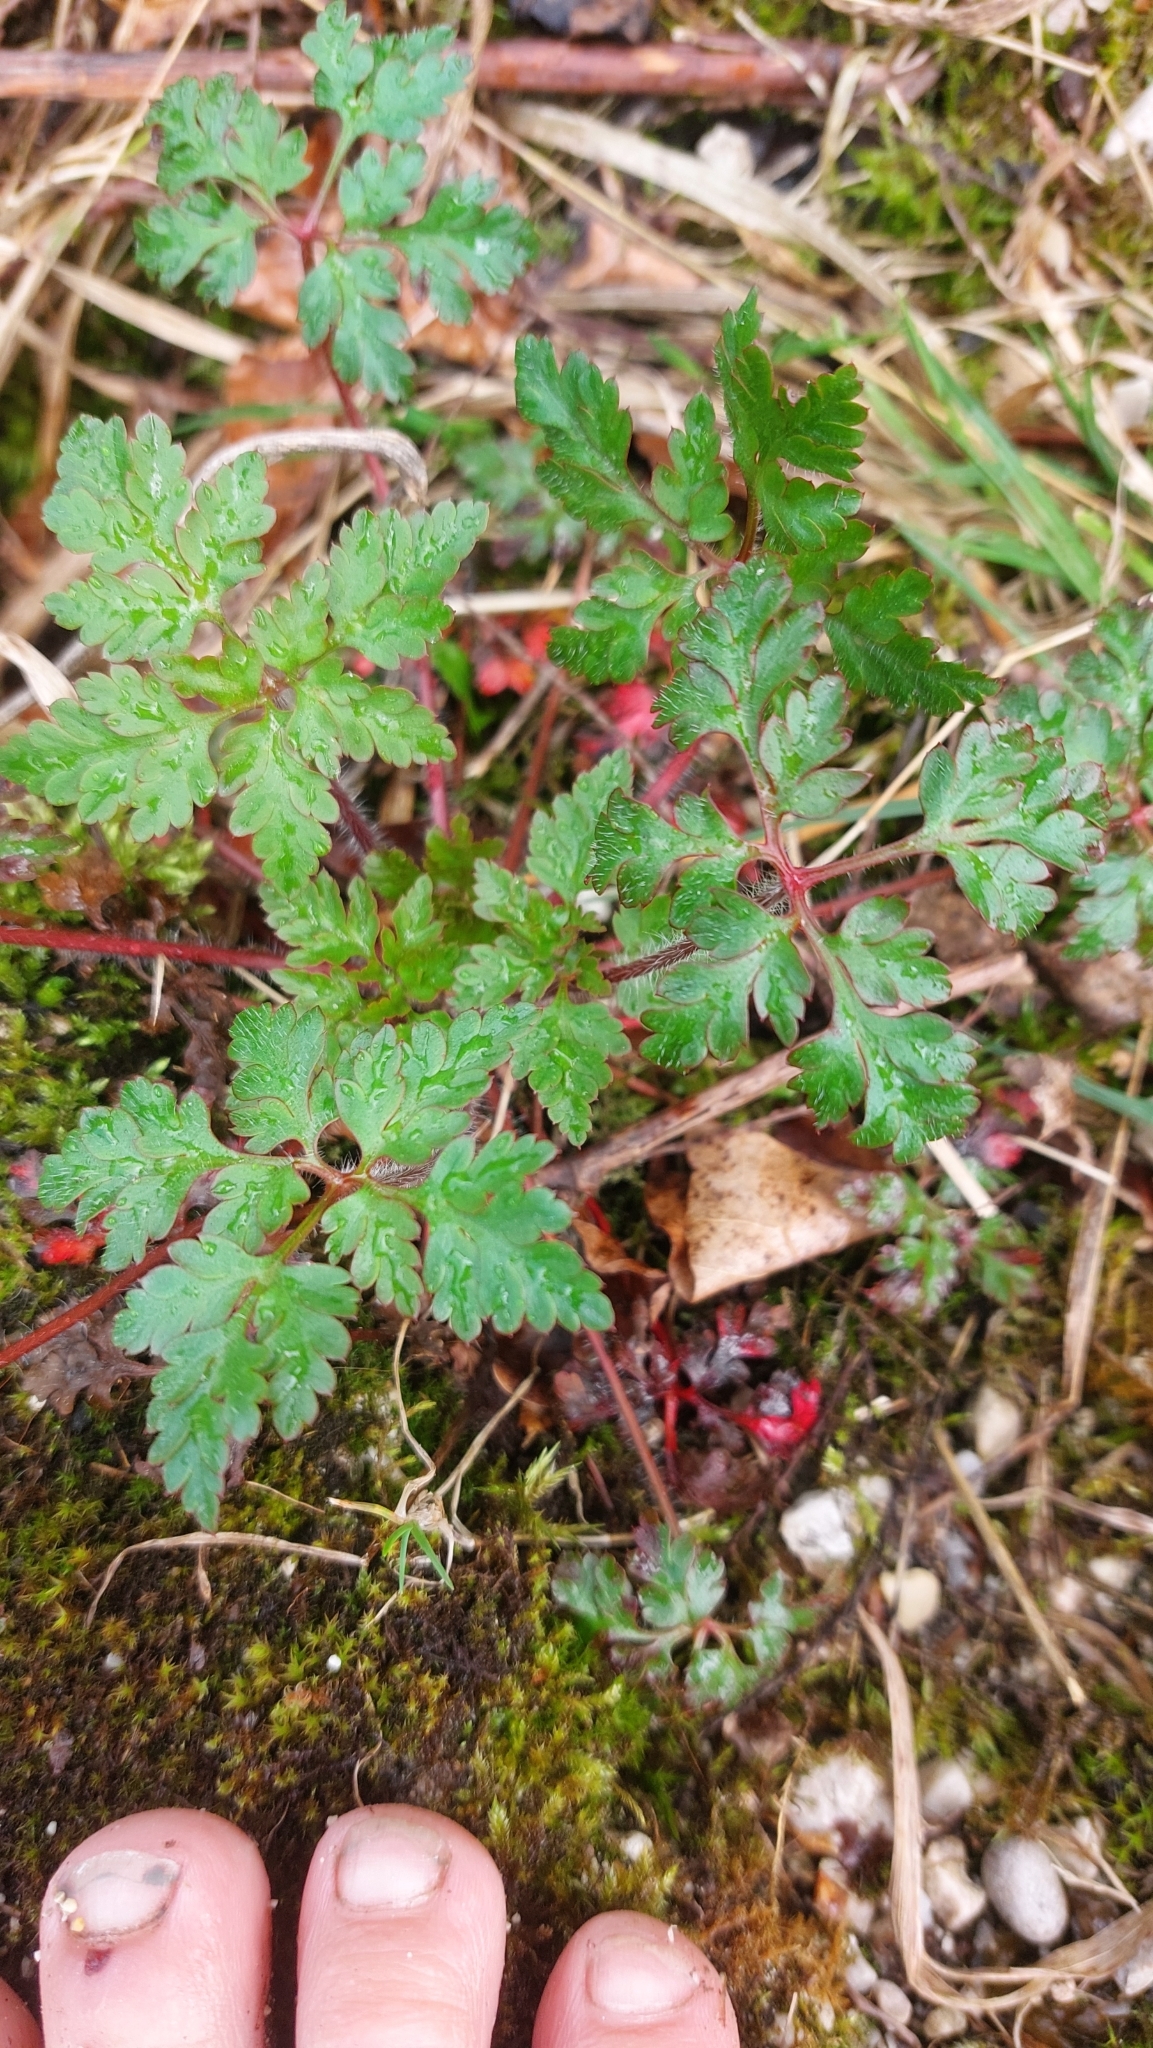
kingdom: Plantae
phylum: Tracheophyta
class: Magnoliopsida
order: Geraniales
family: Geraniaceae
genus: Geranium
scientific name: Geranium robertianum
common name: Herb-robert
